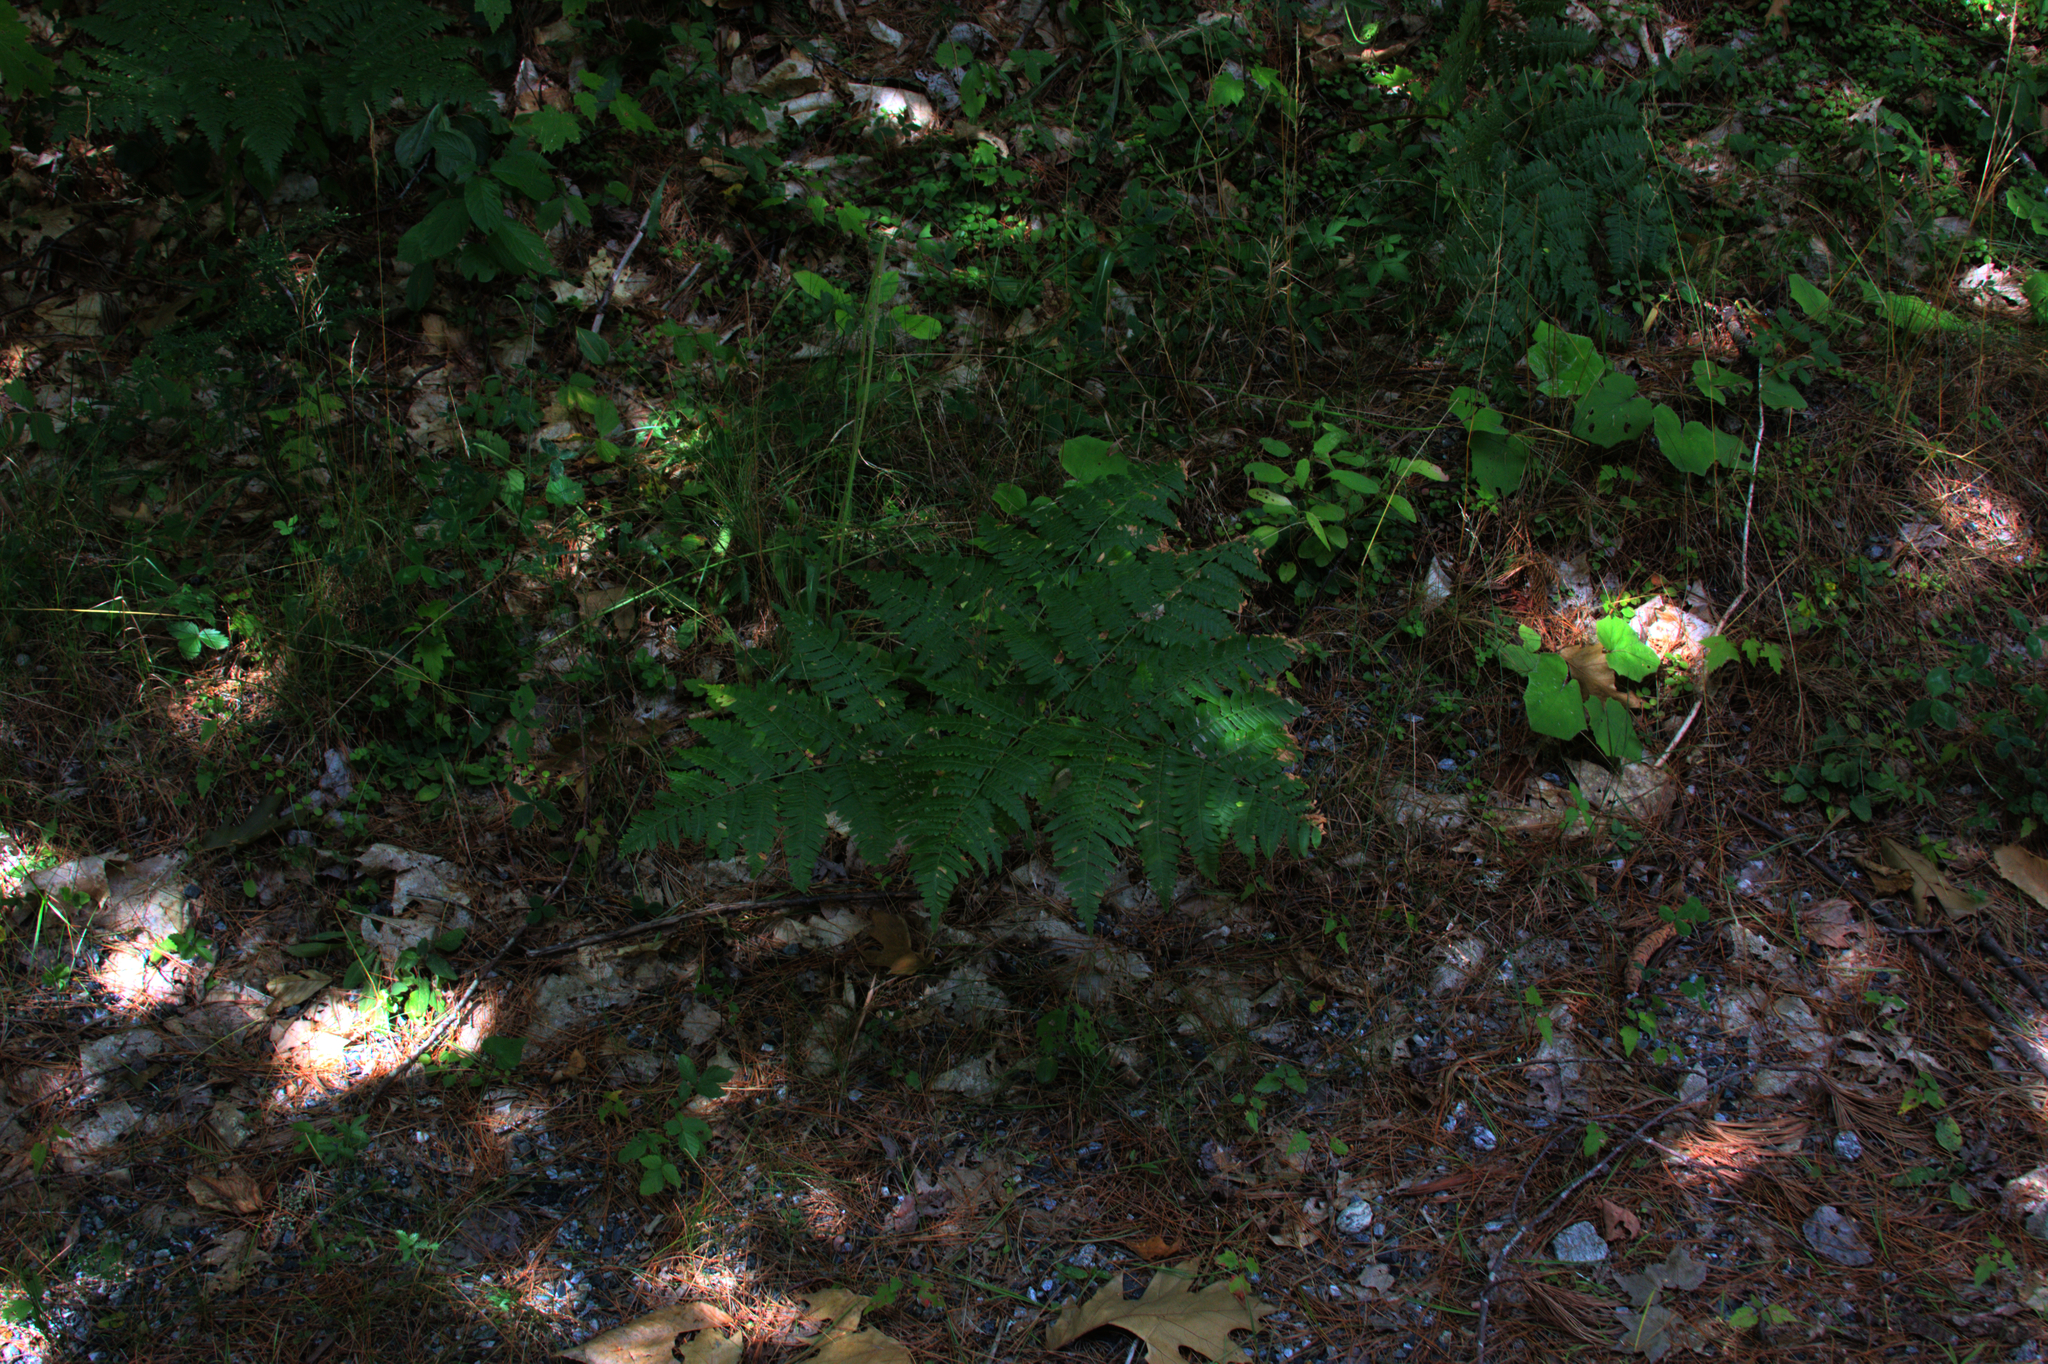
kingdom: Plantae
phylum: Tracheophyta
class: Polypodiopsida
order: Polypodiales
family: Dennstaedtiaceae
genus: Pteridium
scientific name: Pteridium aquilinum
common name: Bracken
